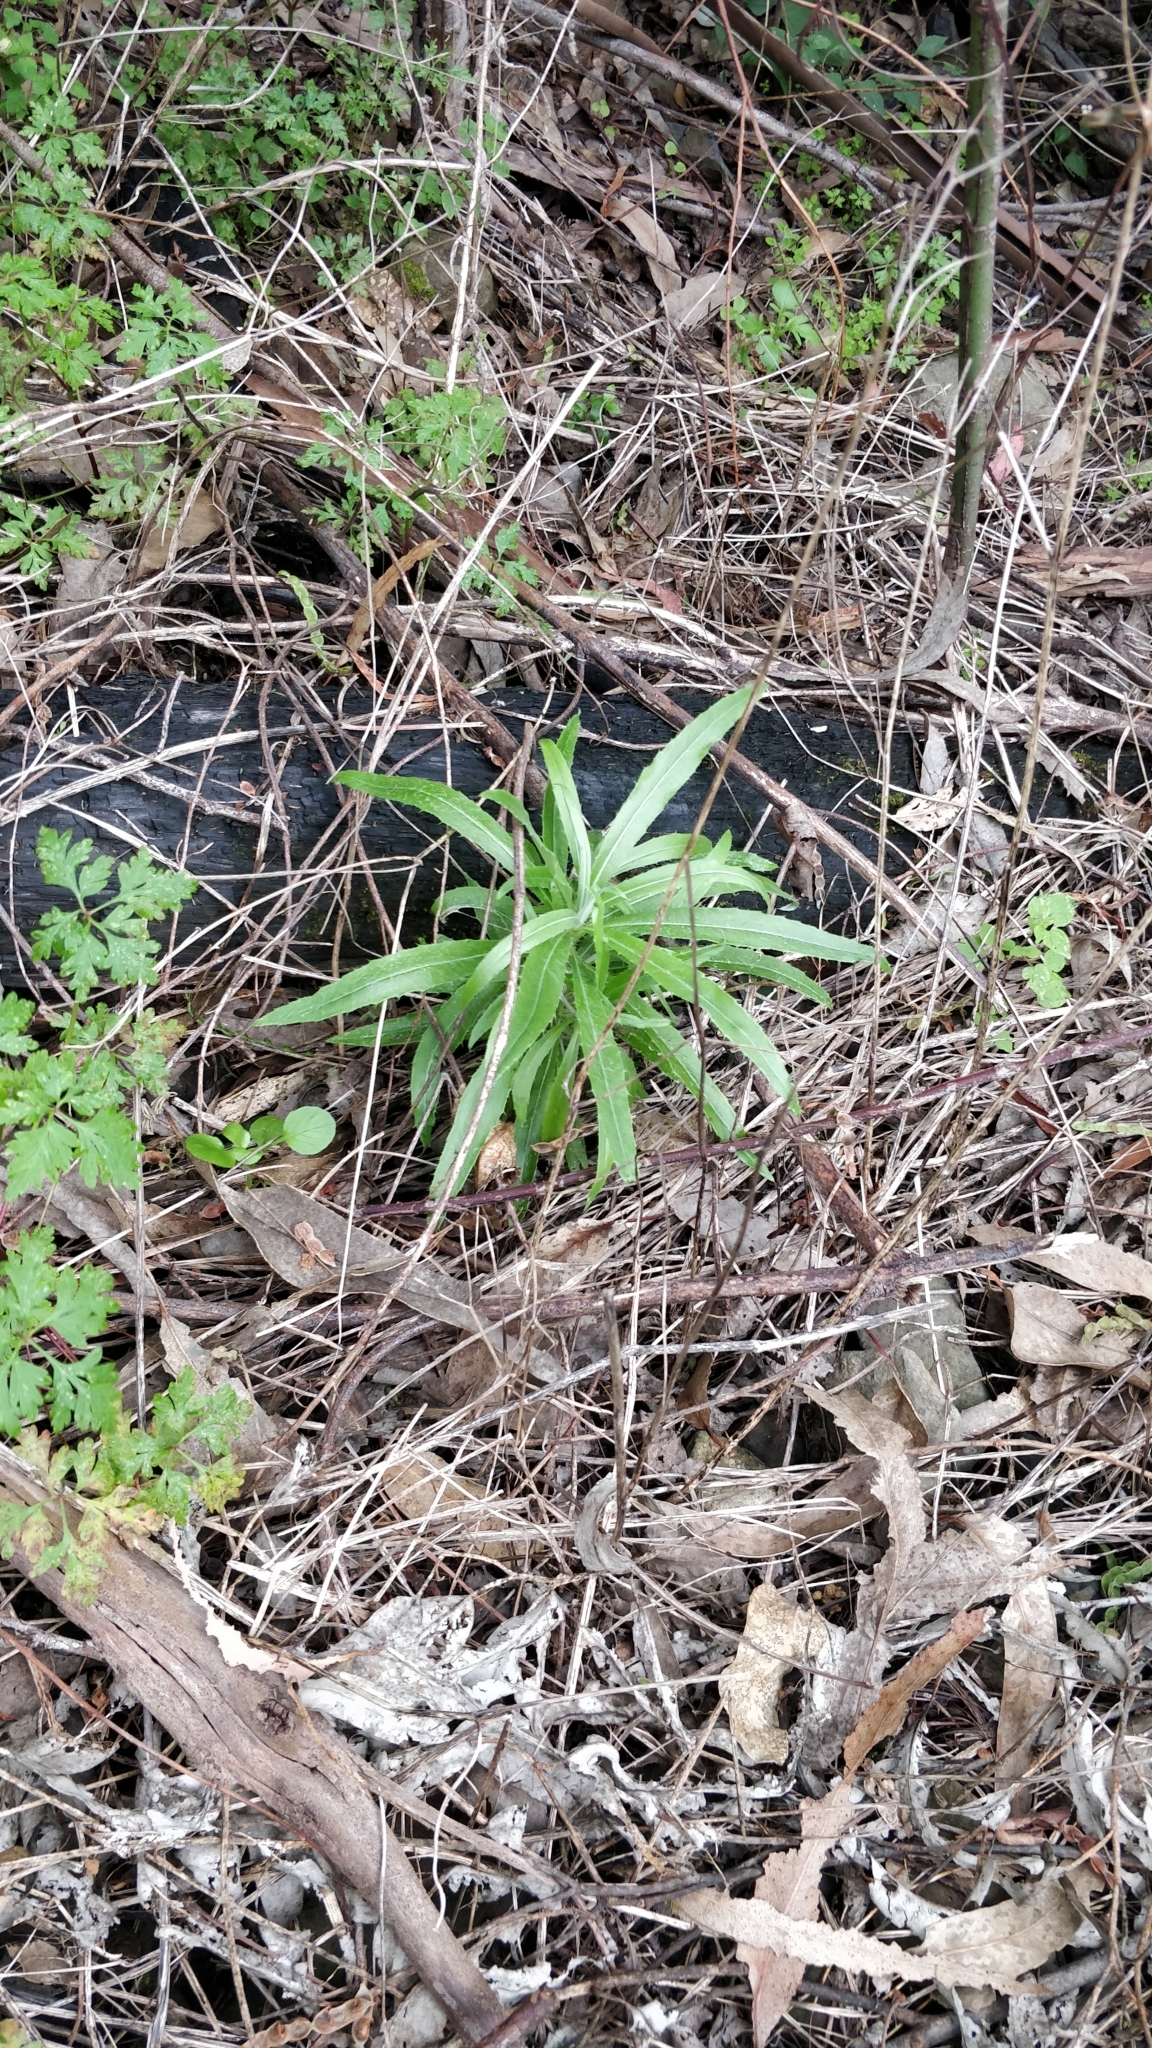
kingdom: Plantae
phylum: Tracheophyta
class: Magnoliopsida
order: Asterales
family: Asteraceae
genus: Carlina
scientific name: Carlina salicifolia
